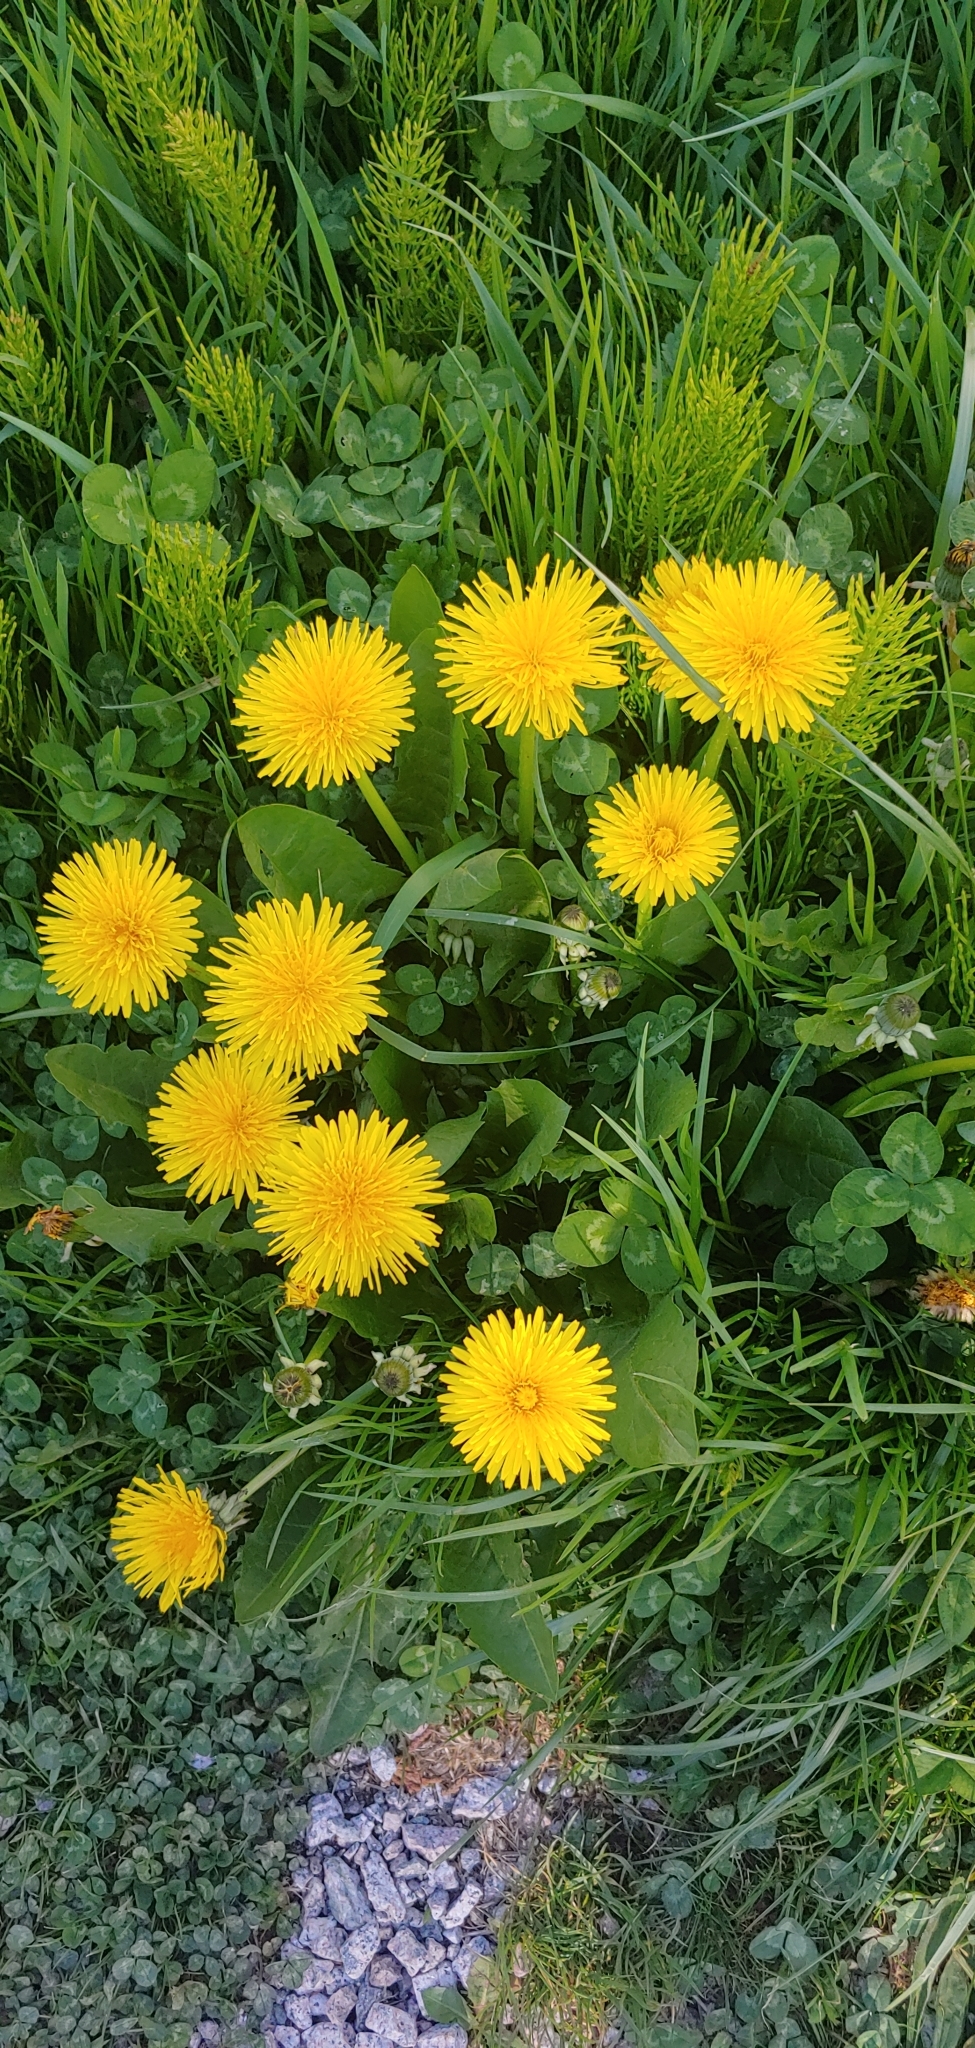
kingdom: Plantae
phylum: Tracheophyta
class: Magnoliopsida
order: Asterales
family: Asteraceae
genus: Taraxacum
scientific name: Taraxacum officinale
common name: Common dandelion
